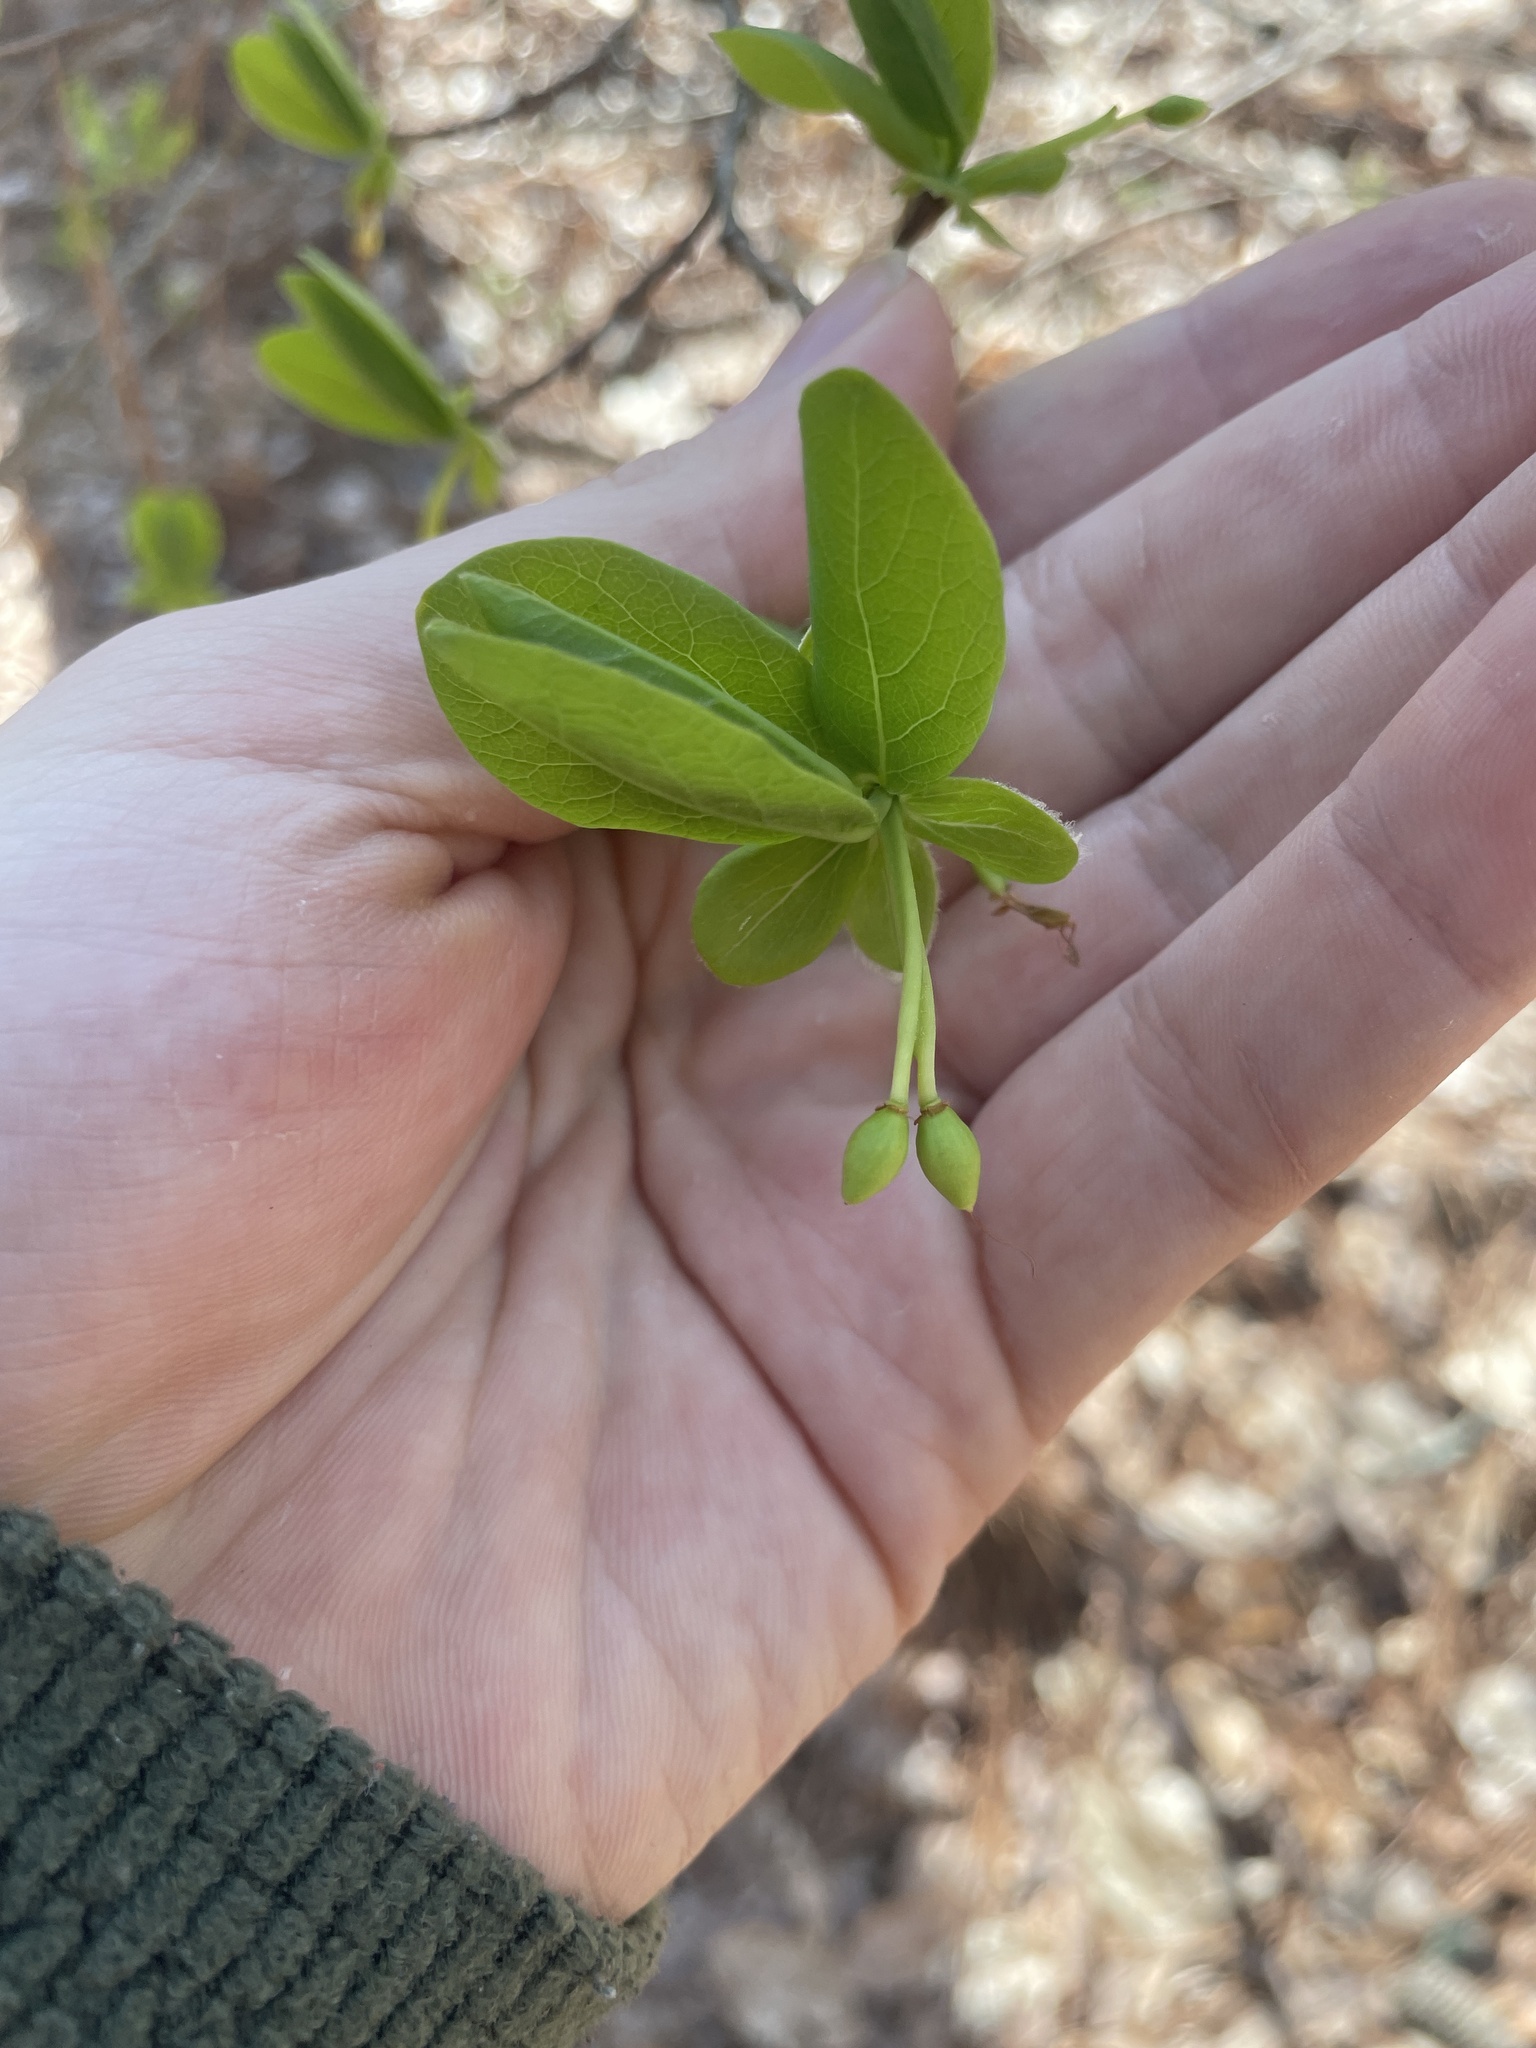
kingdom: Plantae
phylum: Tracheophyta
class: Magnoliopsida
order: Malvales
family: Thymelaeaceae
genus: Dirca
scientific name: Dirca palustris
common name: Leatherwood
